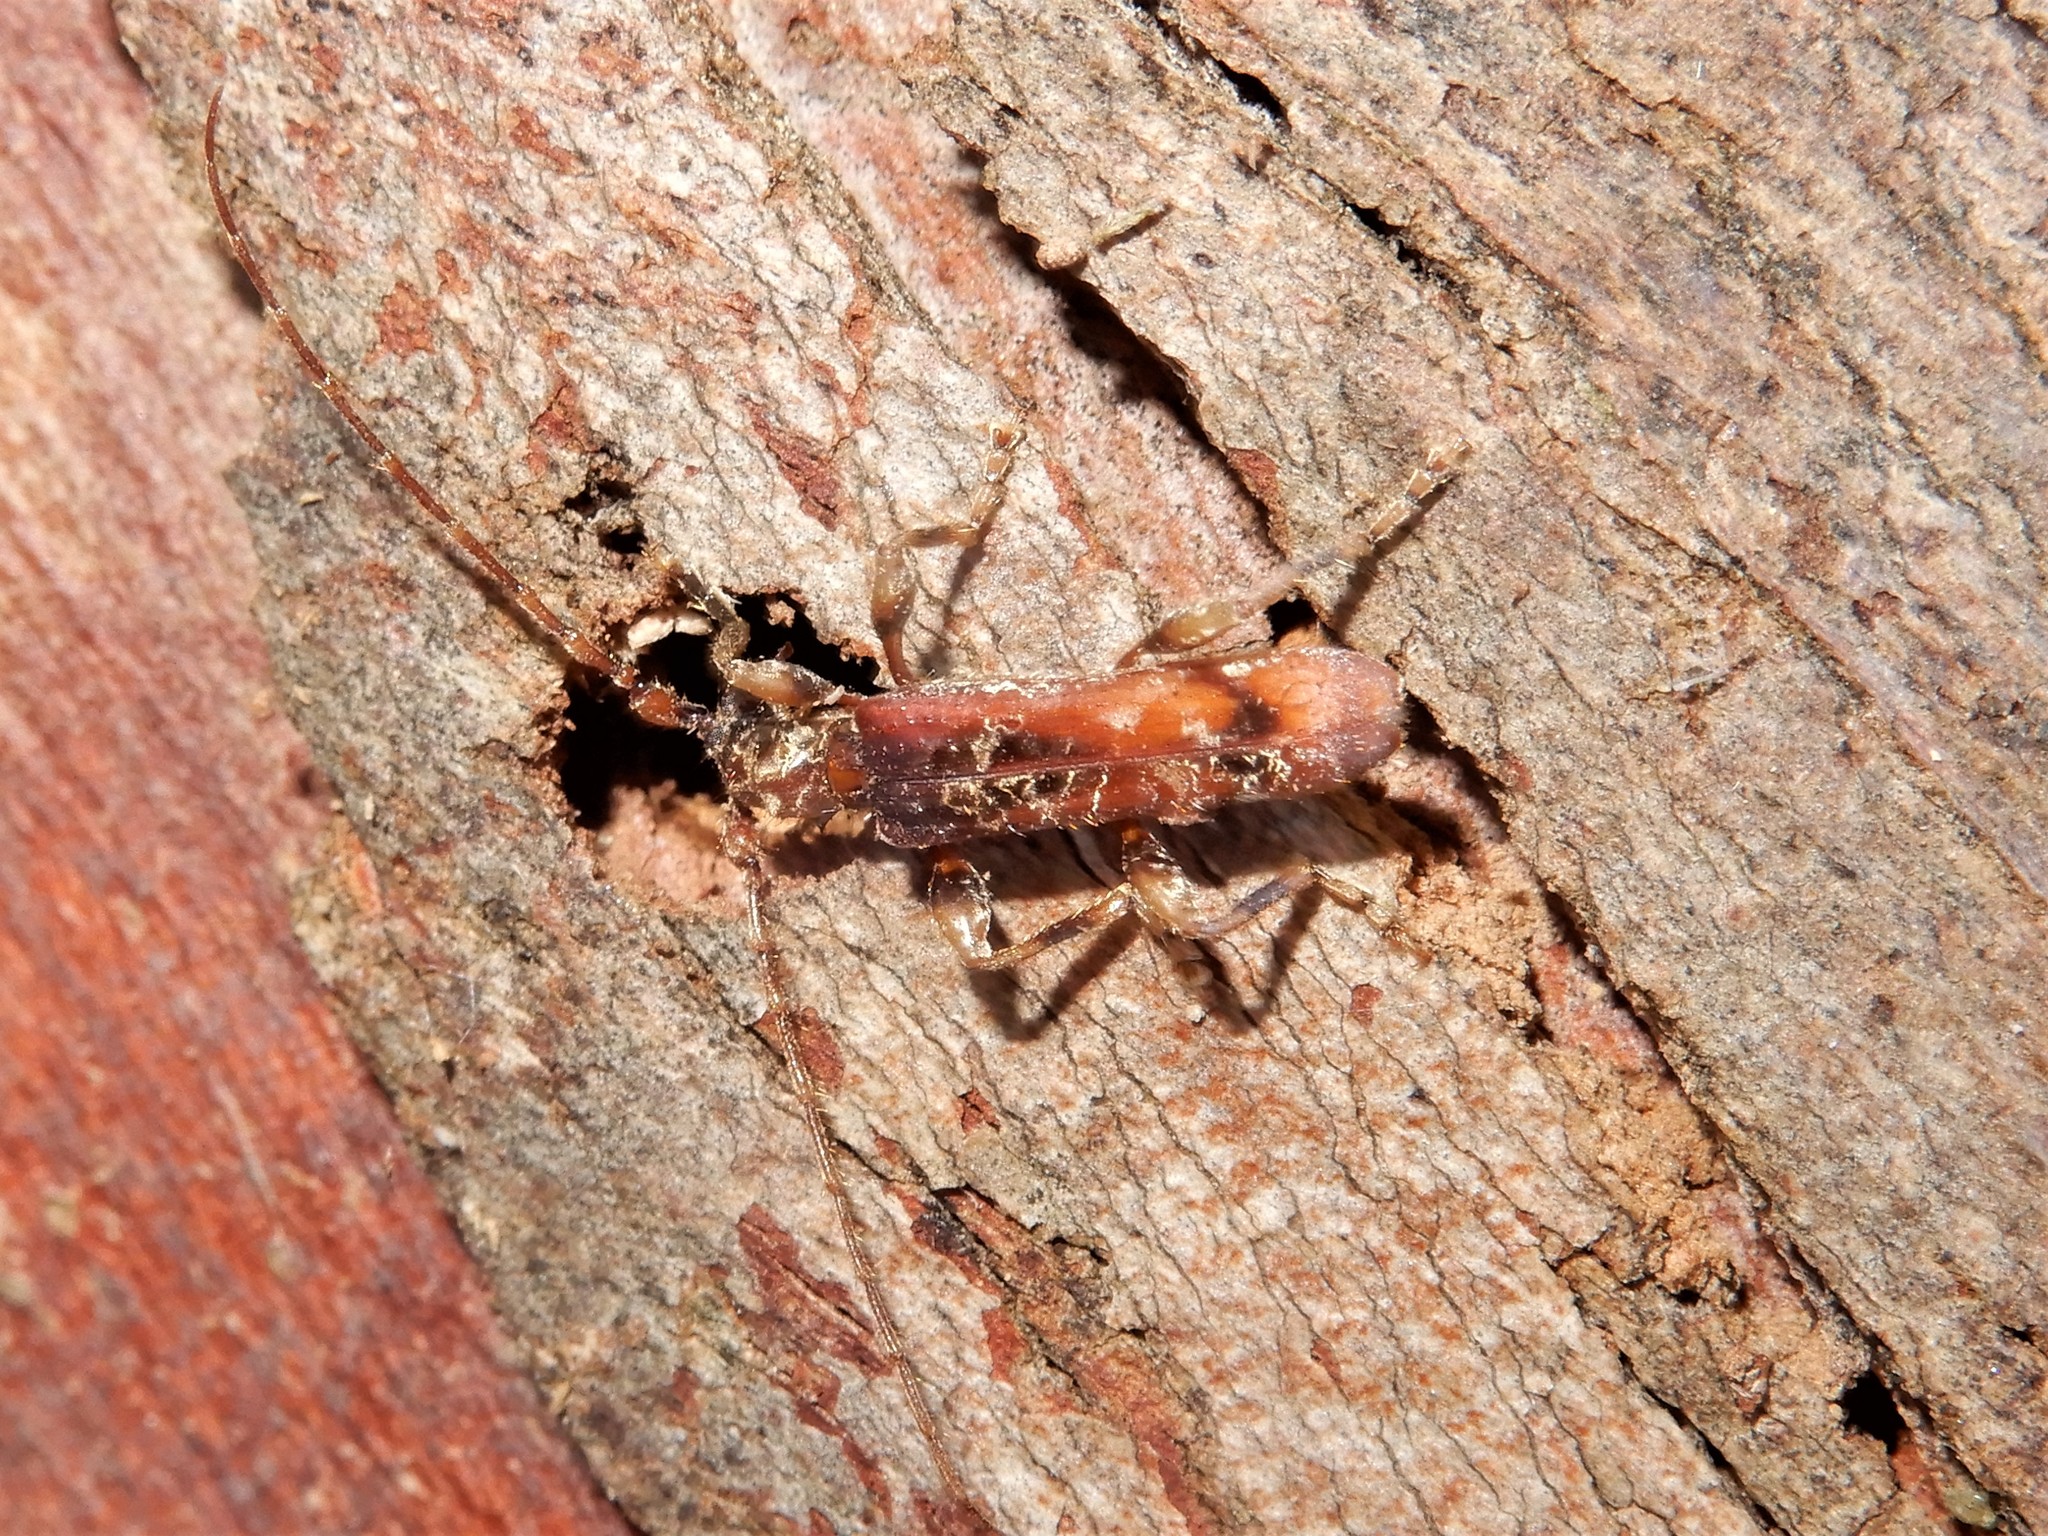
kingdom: Animalia
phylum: Arthropoda
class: Insecta
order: Coleoptera
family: Cerambycidae
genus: Tessaromma
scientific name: Tessaromma undatum
